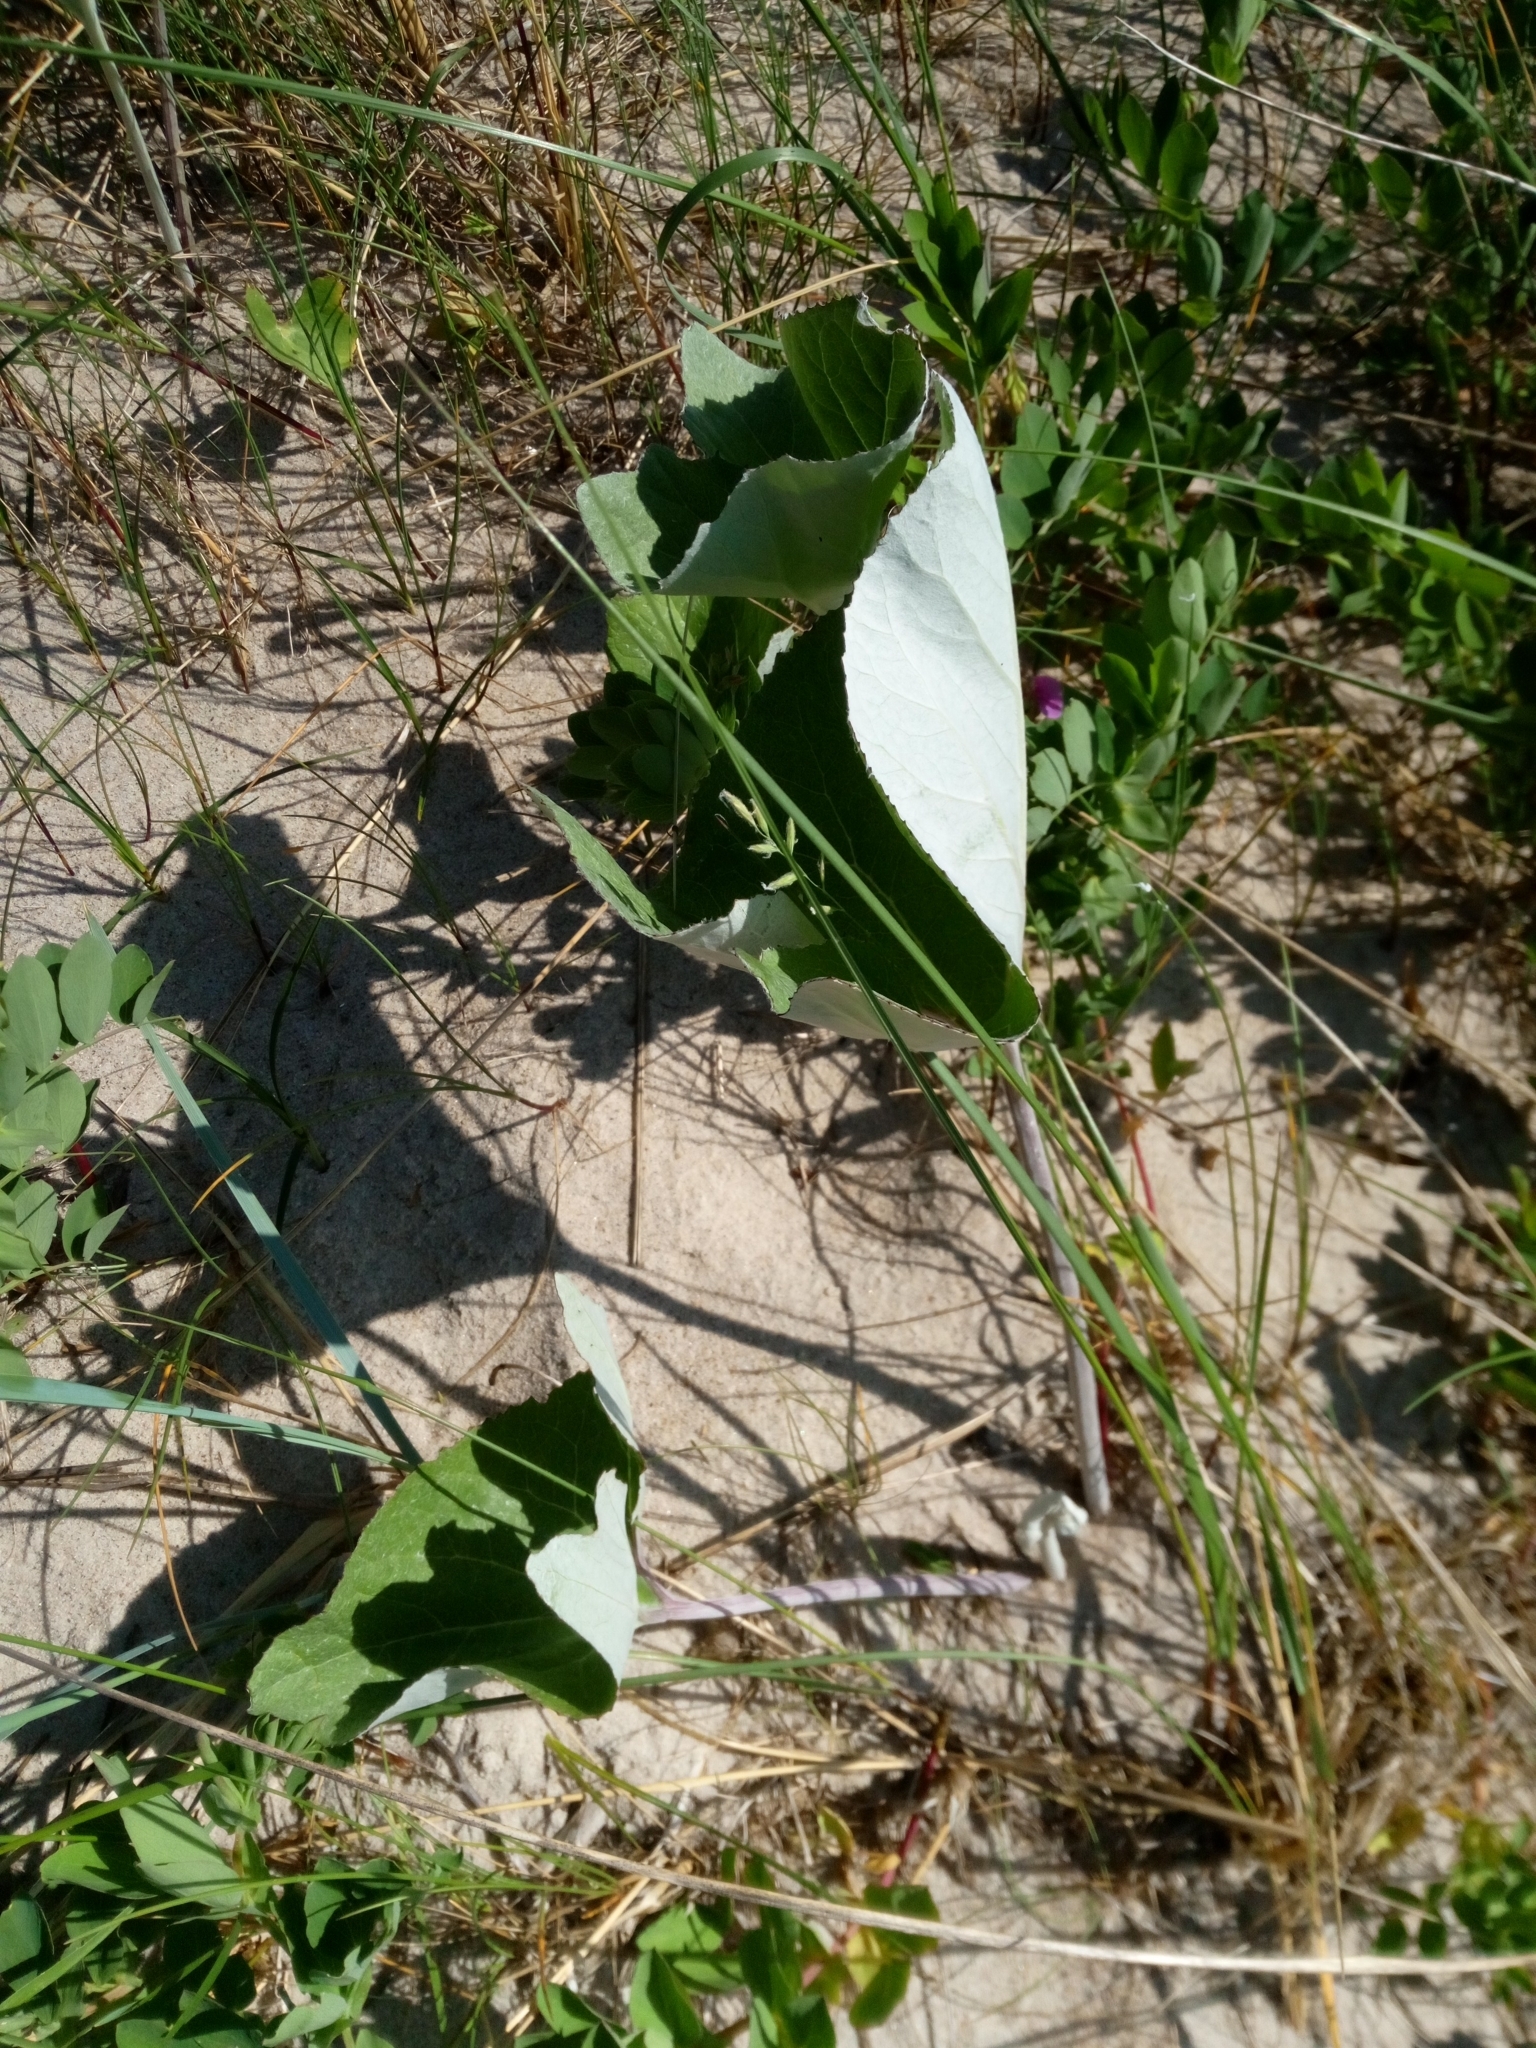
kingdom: Plantae
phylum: Tracheophyta
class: Magnoliopsida
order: Asterales
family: Asteraceae
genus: Petasites
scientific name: Petasites spurius
